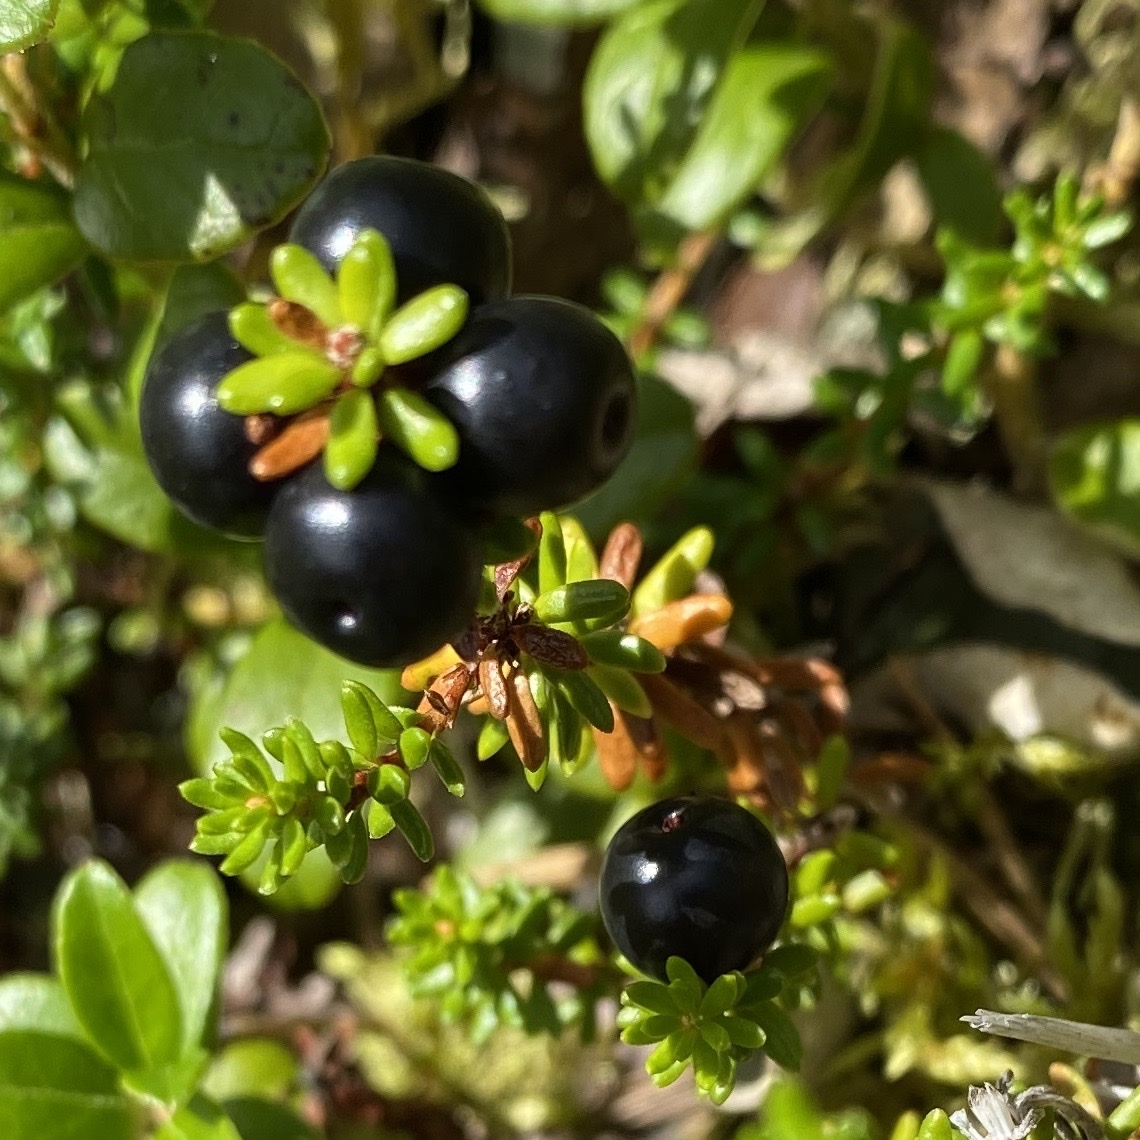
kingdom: Plantae
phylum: Tracheophyta
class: Magnoliopsida
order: Ericales
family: Ericaceae
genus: Empetrum
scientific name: Empetrum nigrum
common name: Black crowberry
